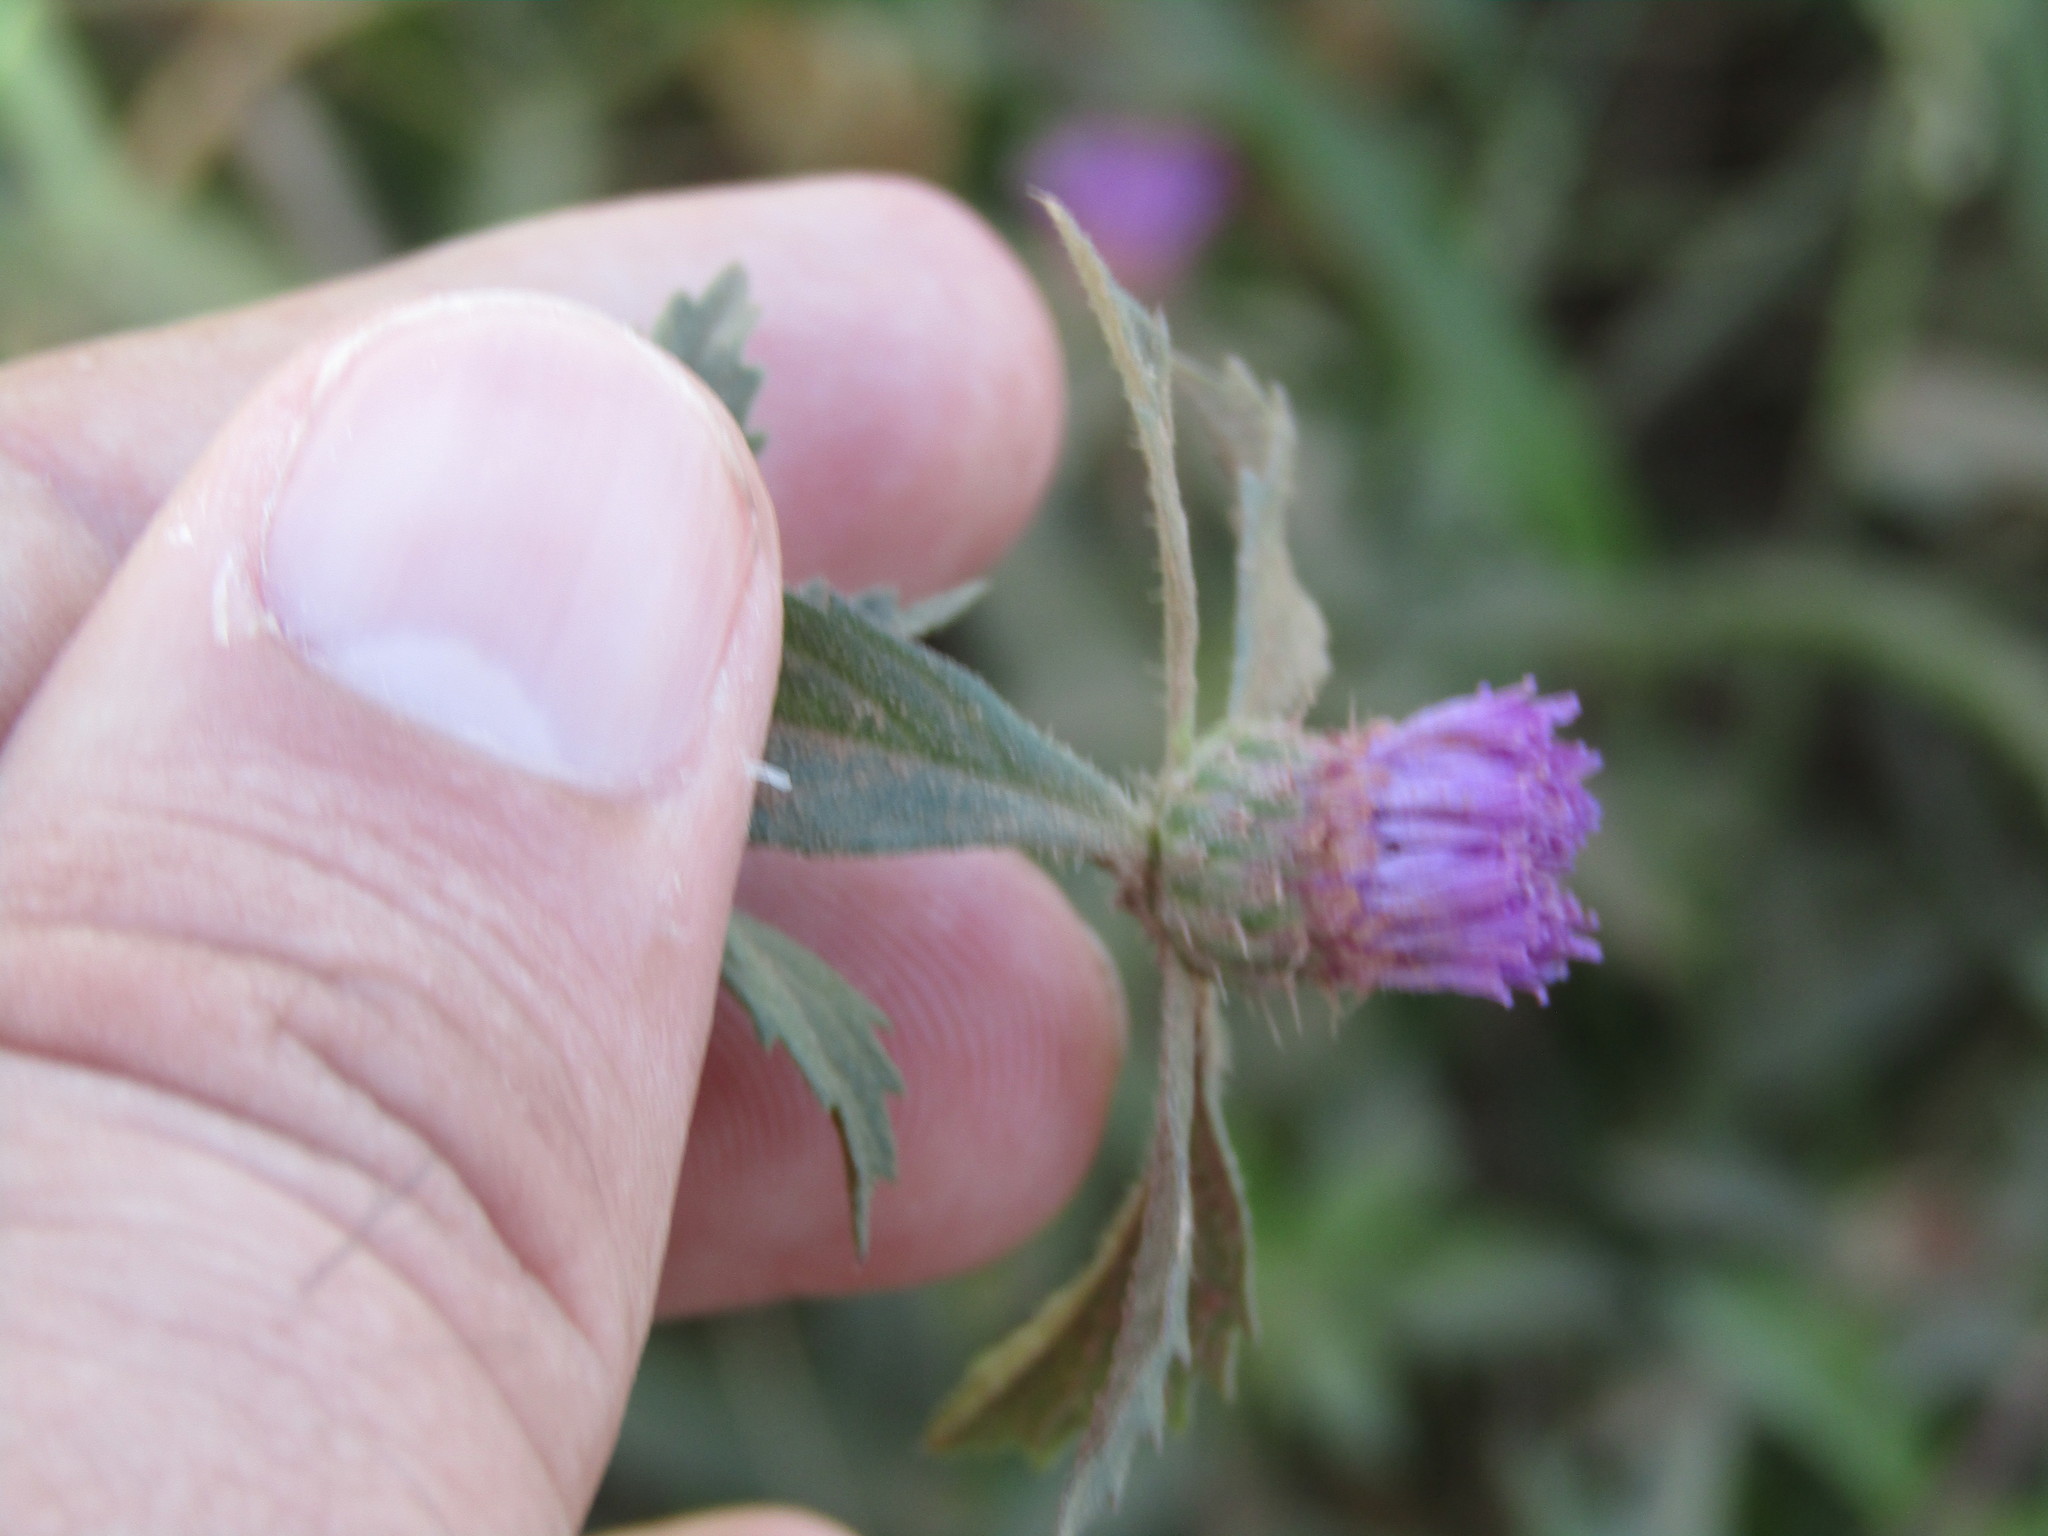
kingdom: Plantae
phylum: Tracheophyta
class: Magnoliopsida
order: Asterales
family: Asteraceae
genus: Centratherum
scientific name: Centratherum punctatum
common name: Larkdaisy
